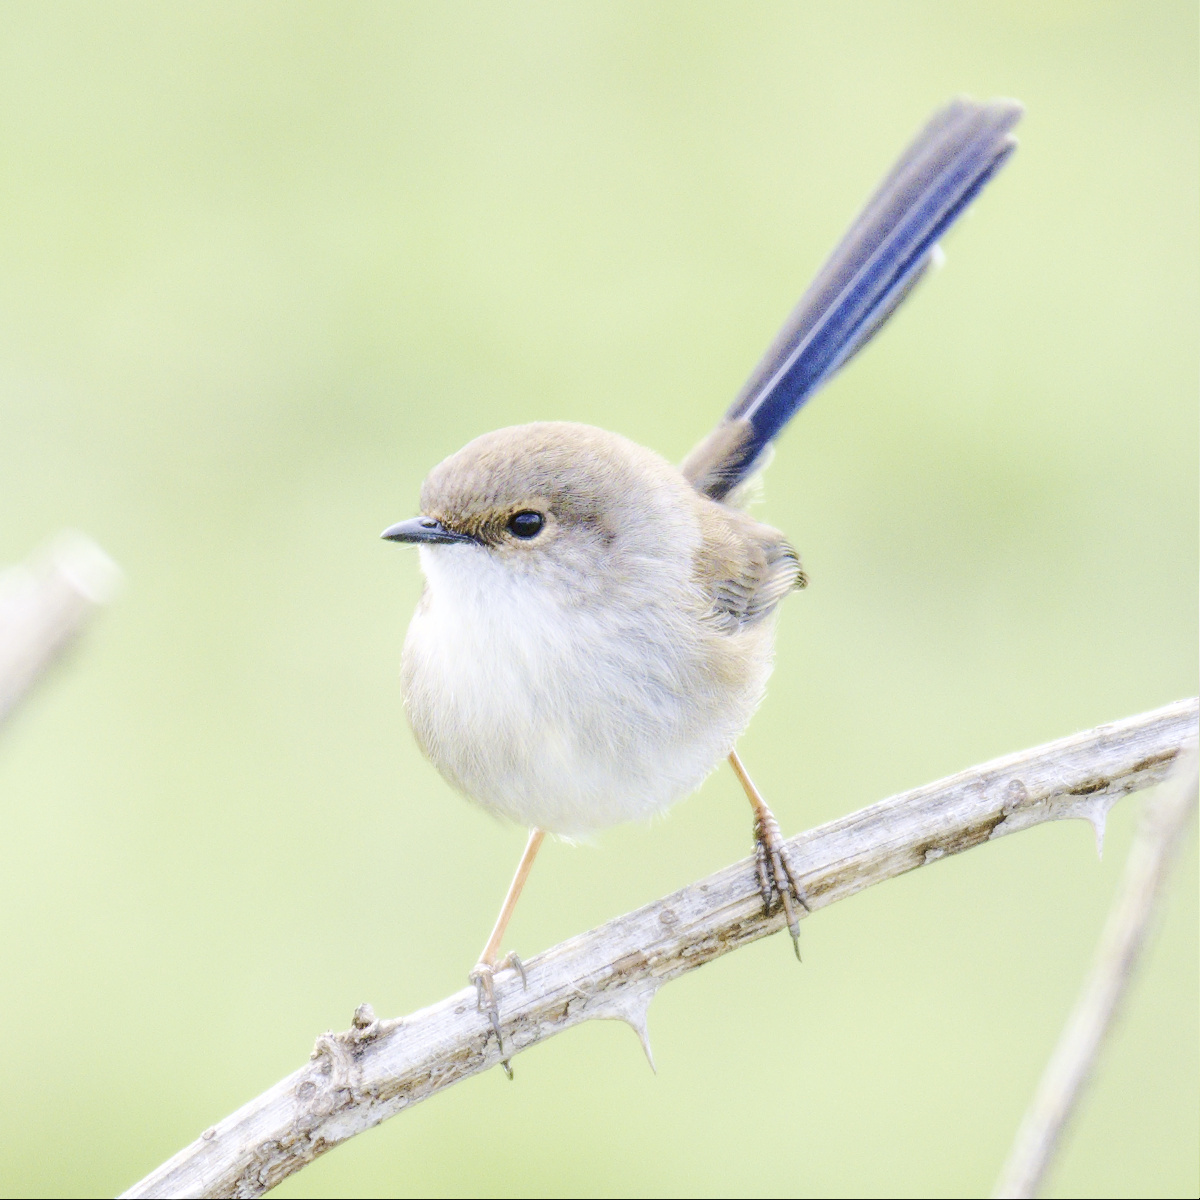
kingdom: Animalia
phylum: Chordata
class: Aves
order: Passeriformes
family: Maluridae
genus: Malurus
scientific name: Malurus cyaneus
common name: Superb fairywren
